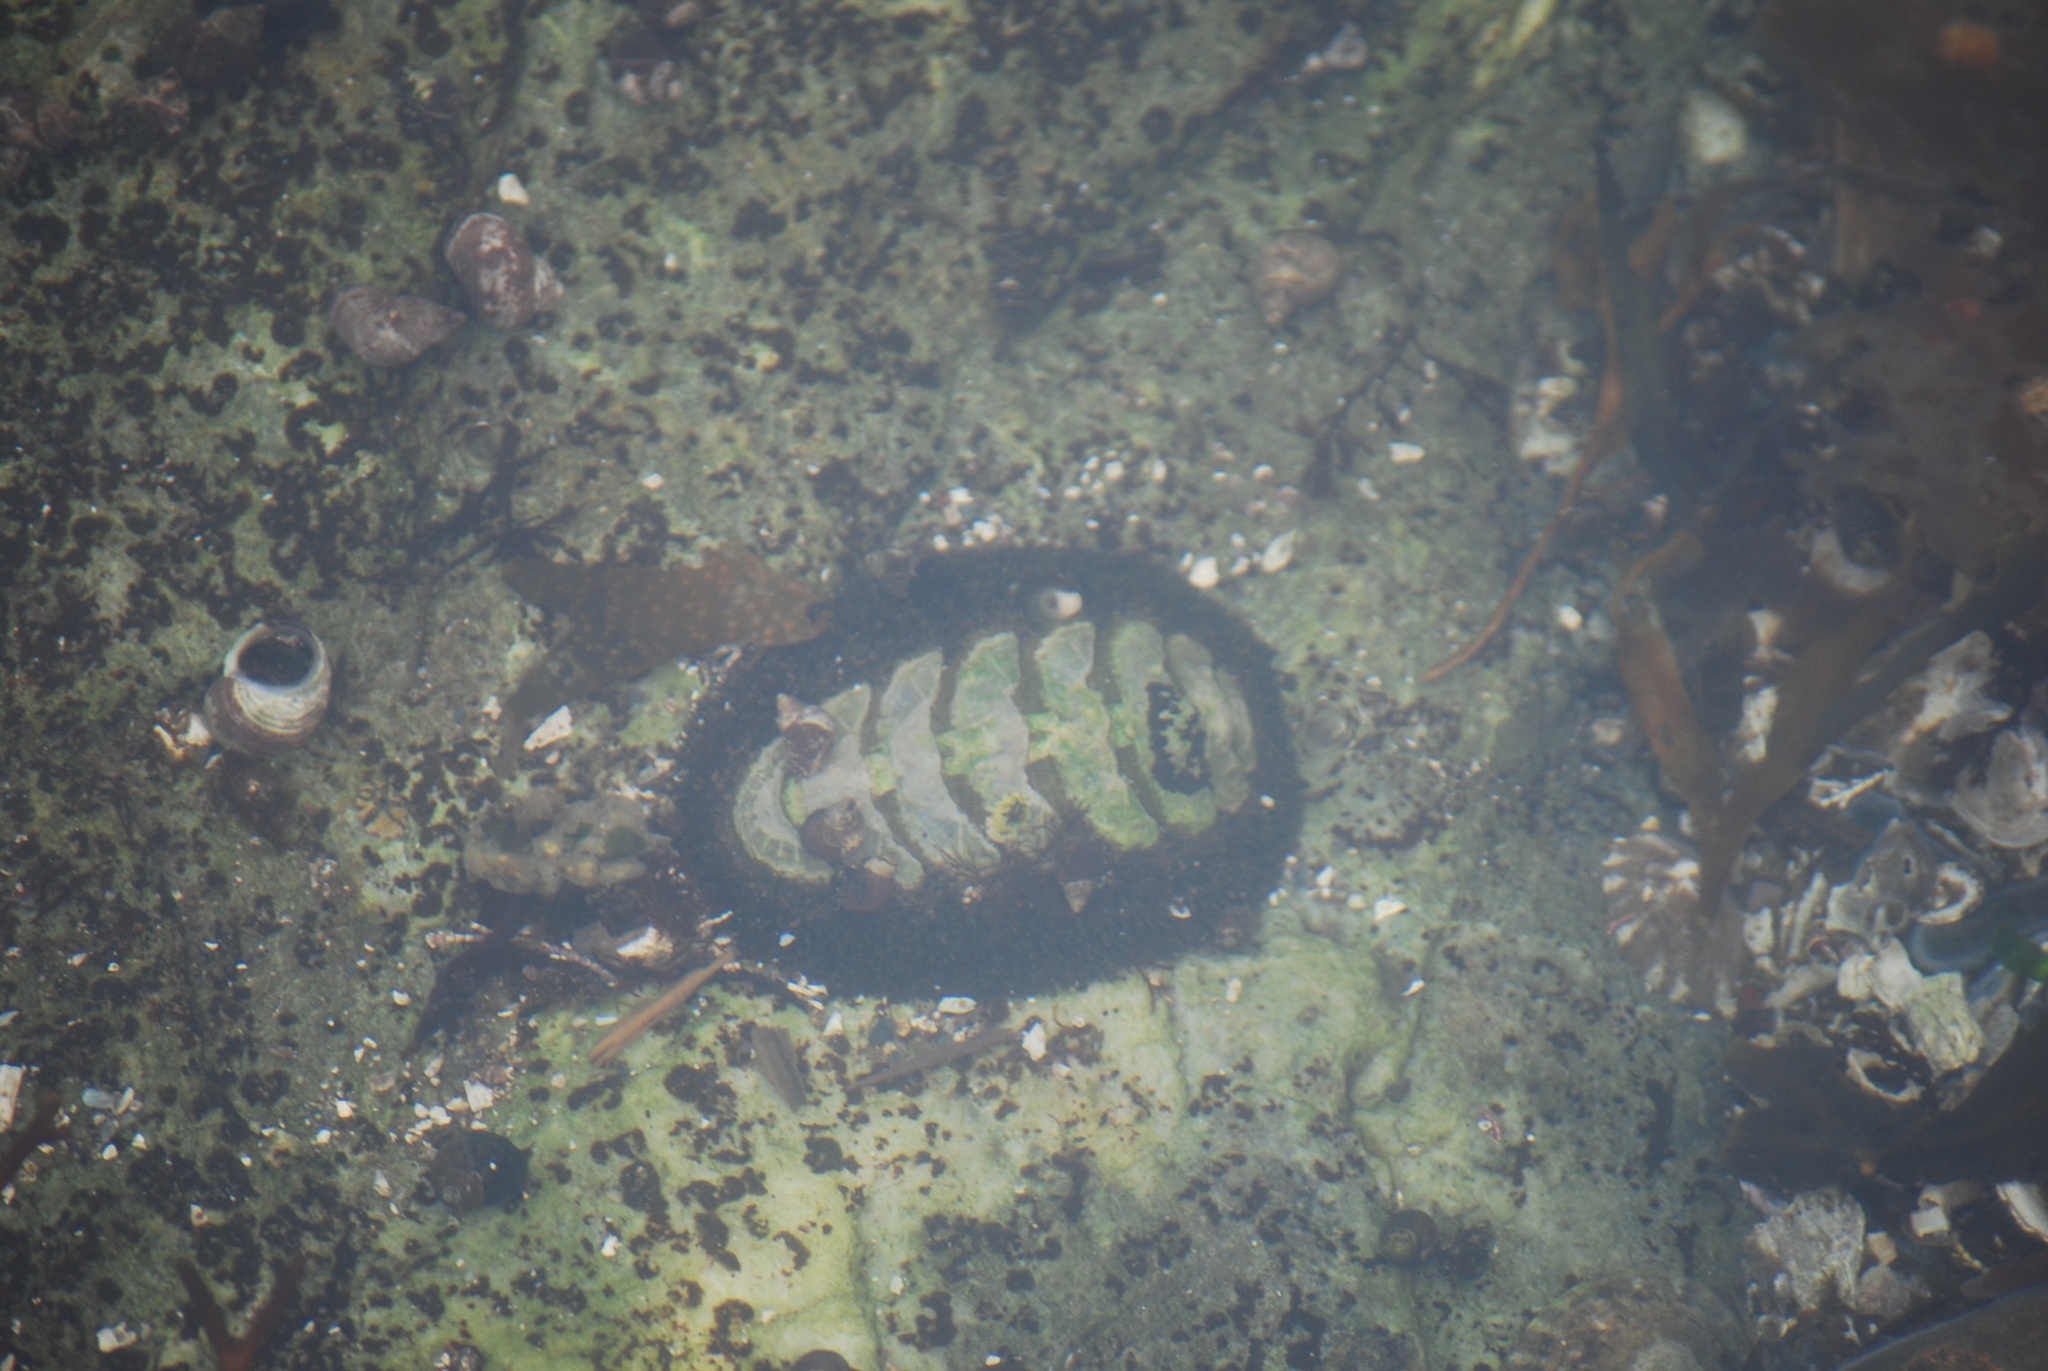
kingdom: Animalia
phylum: Mollusca
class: Polyplacophora
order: Chitonida
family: Mopaliidae
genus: Mopalia
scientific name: Mopalia muscosa
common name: Mossy chiton
